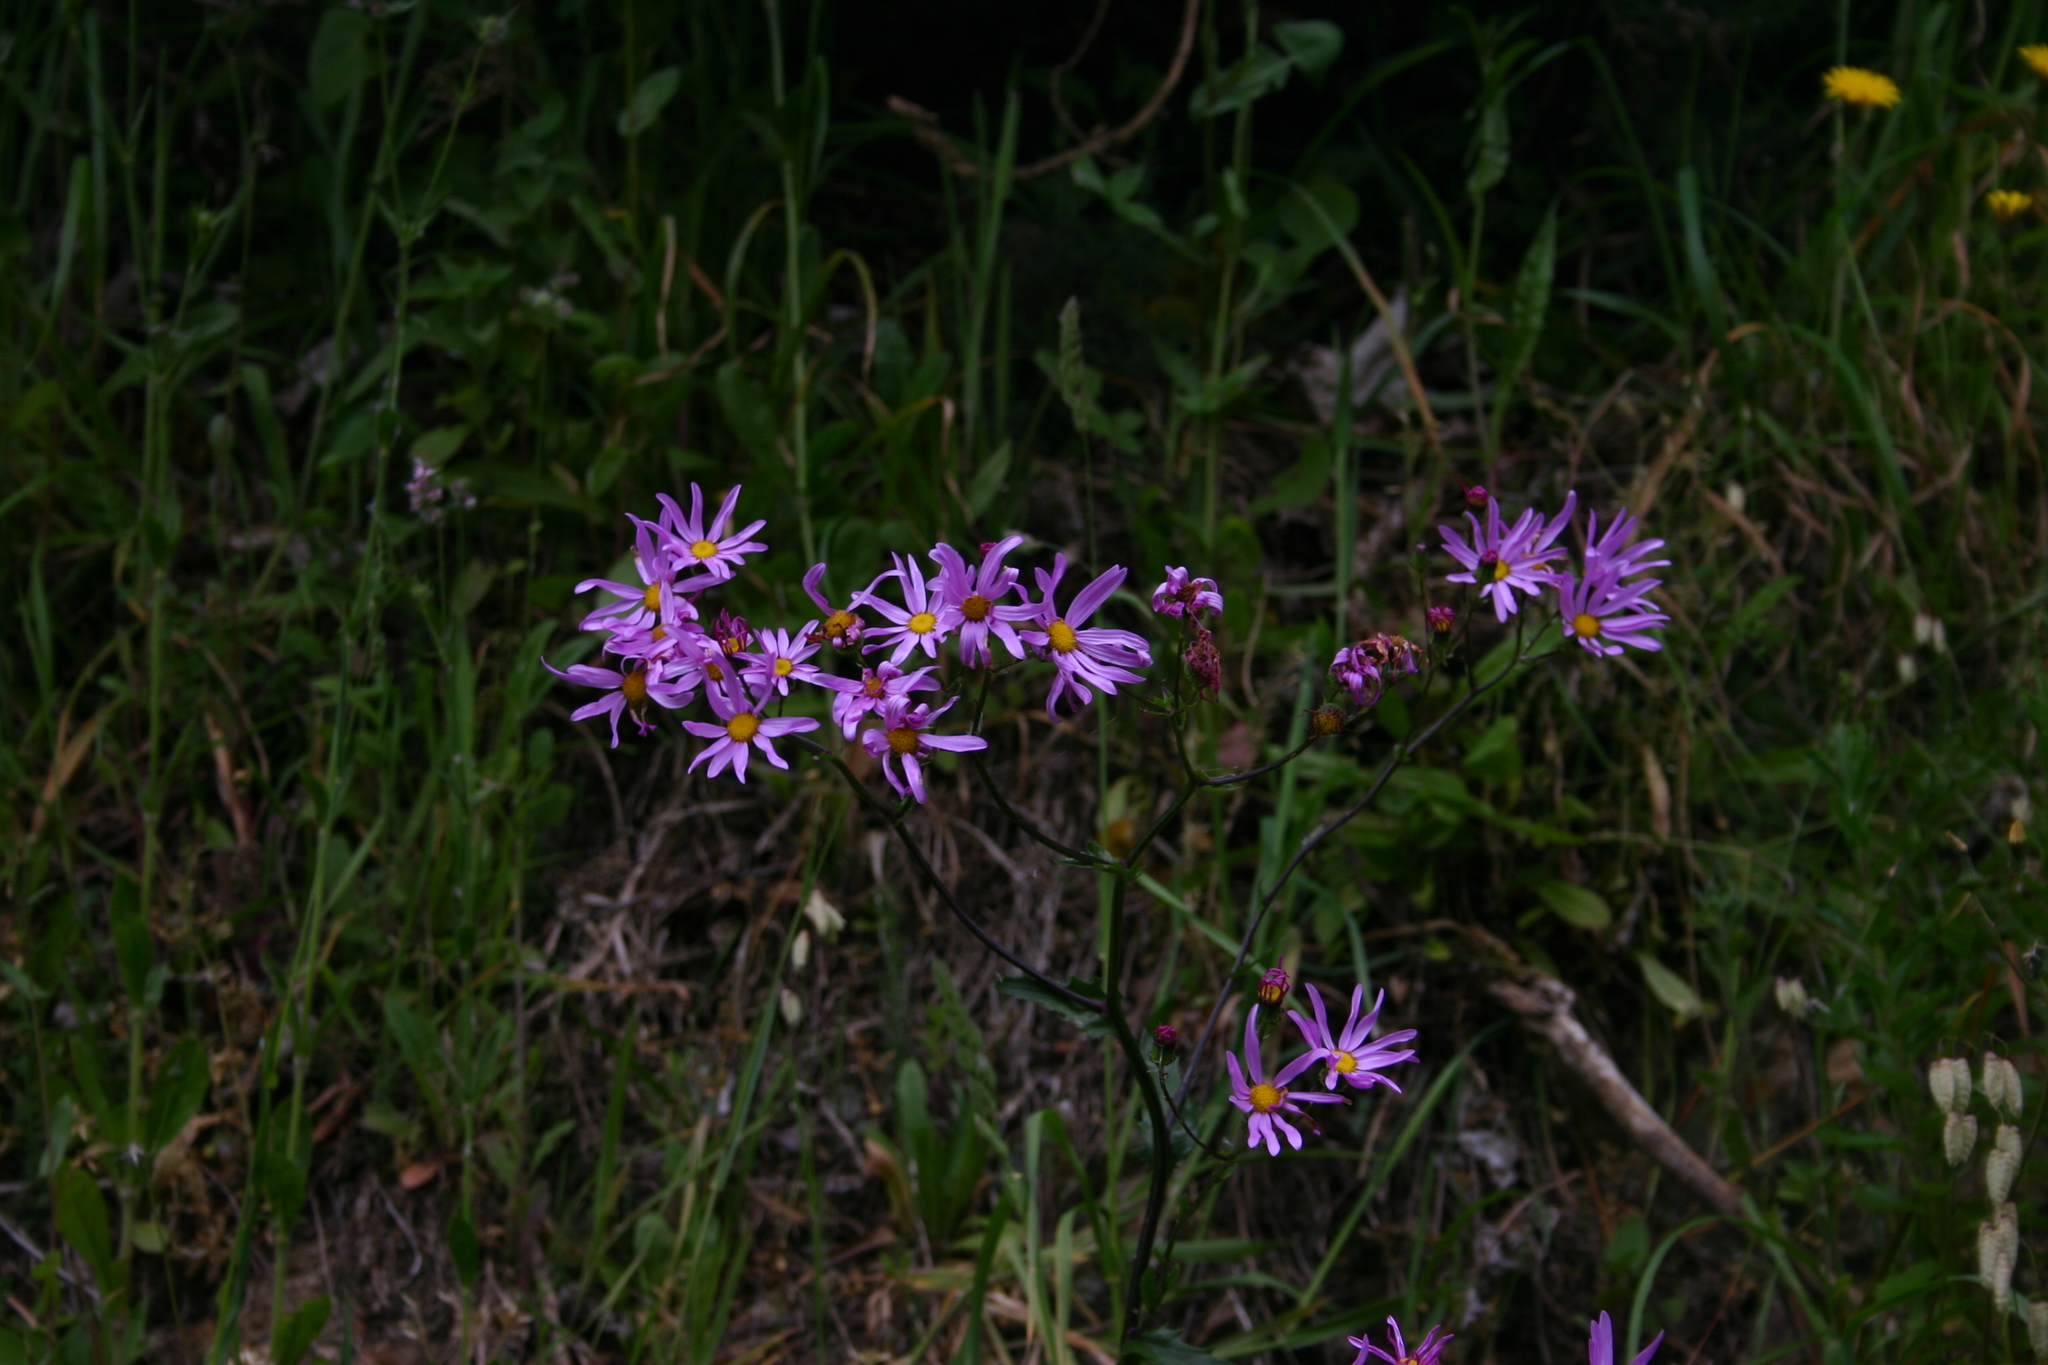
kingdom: Plantae
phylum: Tracheophyta
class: Magnoliopsida
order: Asterales
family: Asteraceae
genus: Senecio
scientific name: Senecio glastifolius
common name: Woad-leaved ragwort
